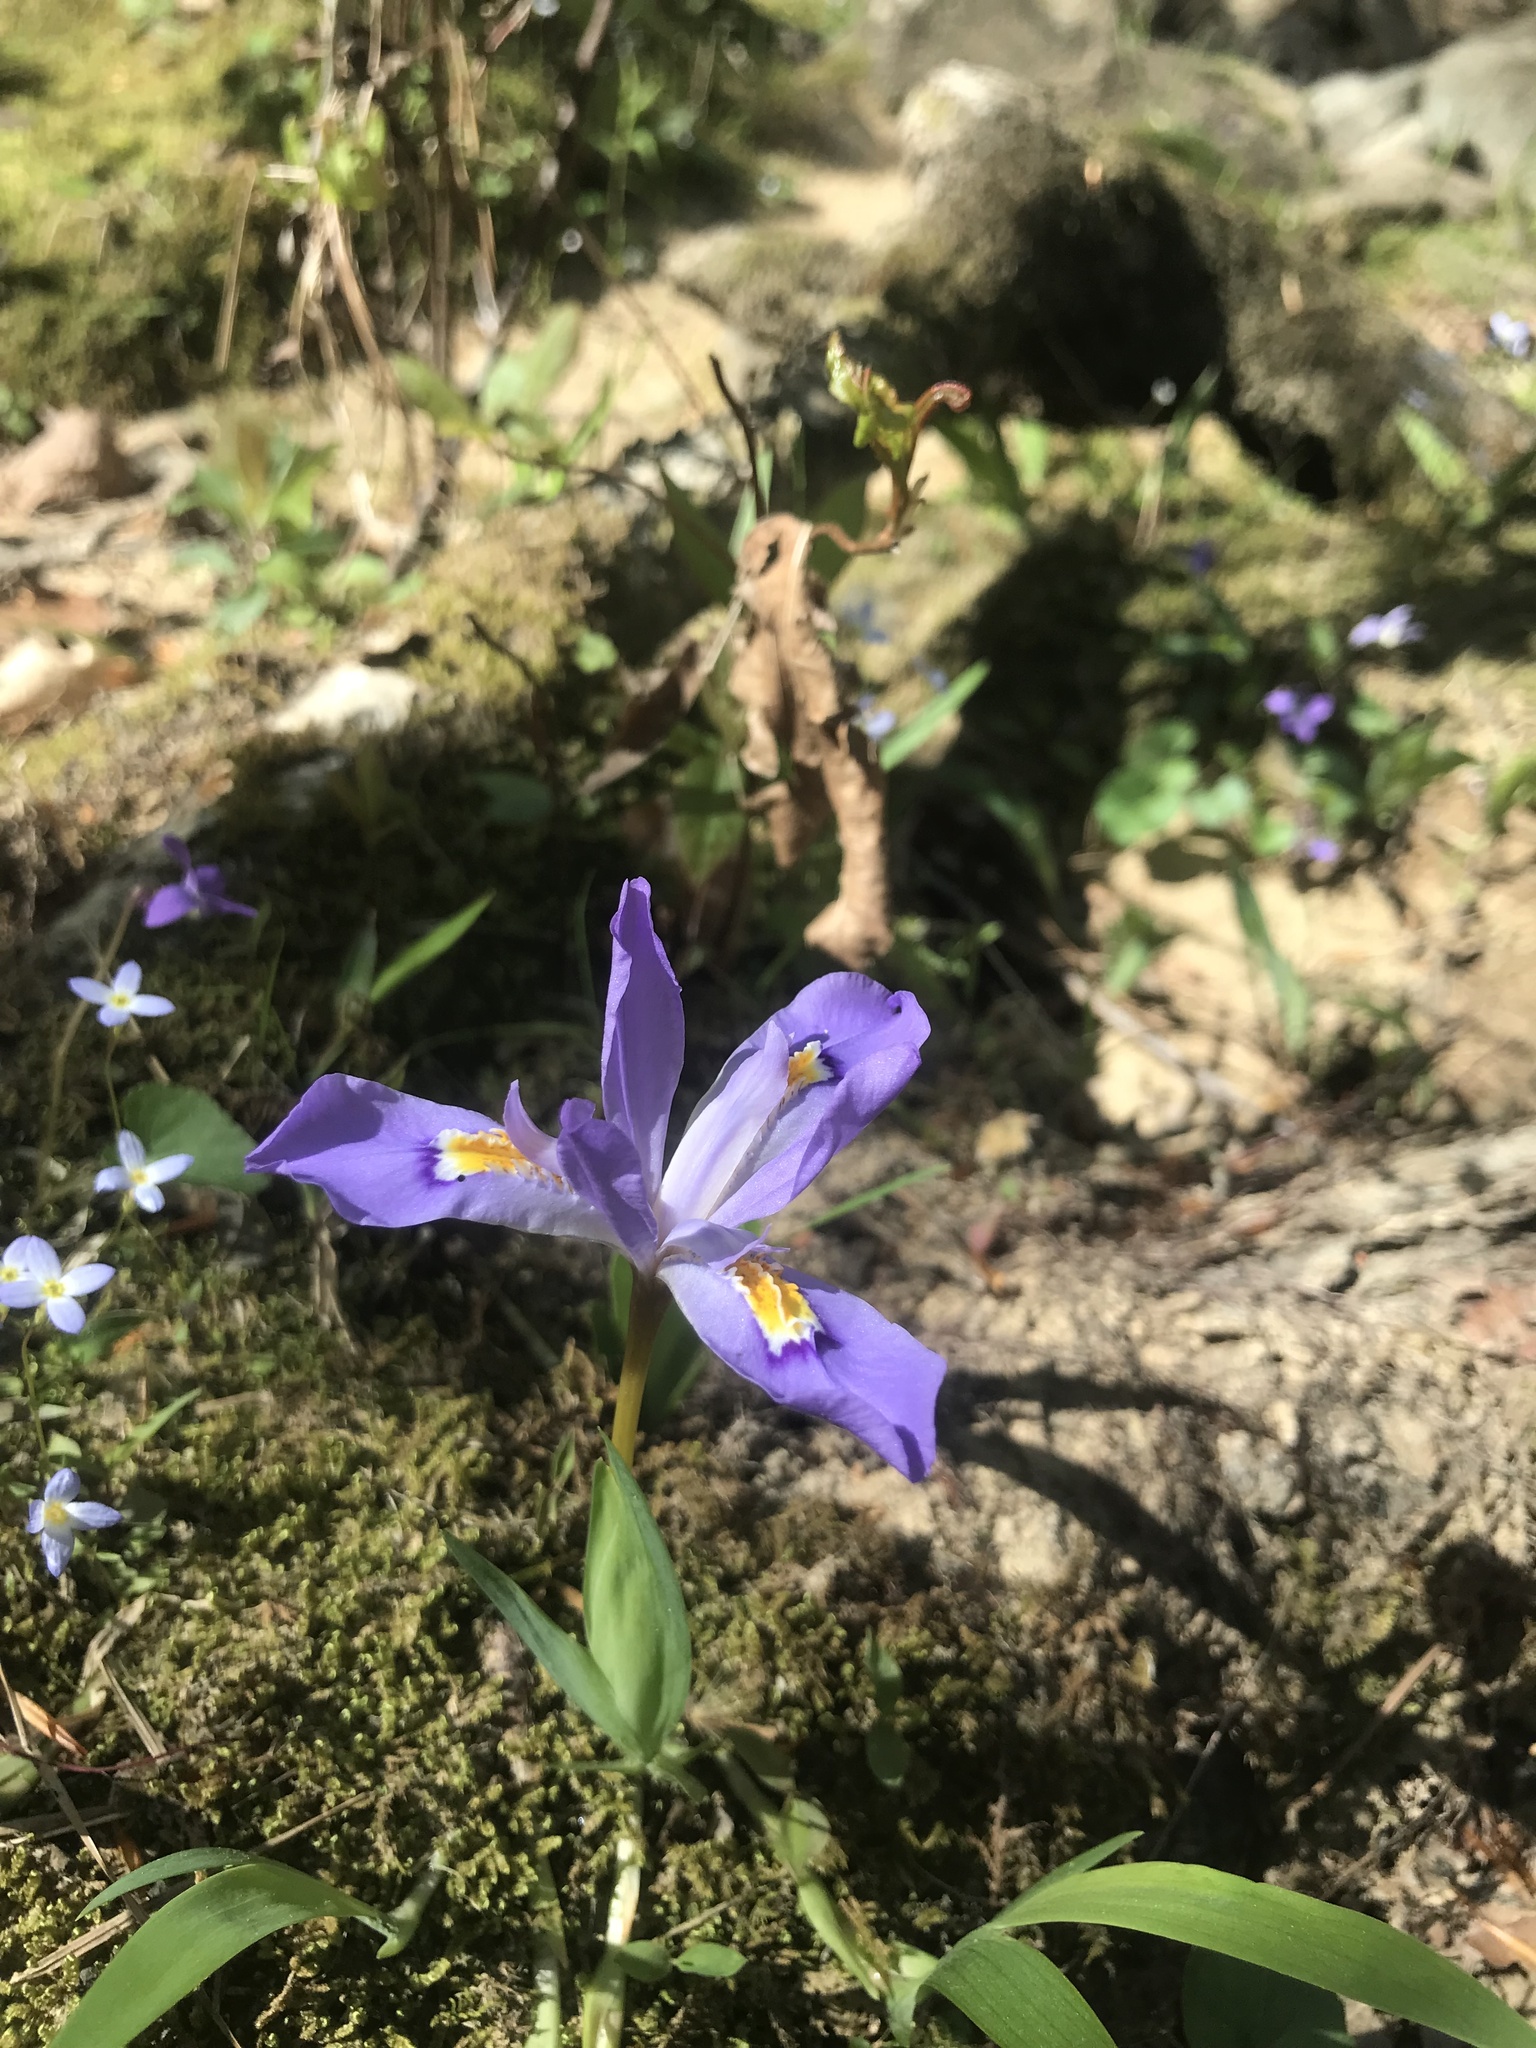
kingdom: Plantae
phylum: Tracheophyta
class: Liliopsida
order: Asparagales
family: Iridaceae
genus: Iris
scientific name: Iris cristata
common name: Crested iris
